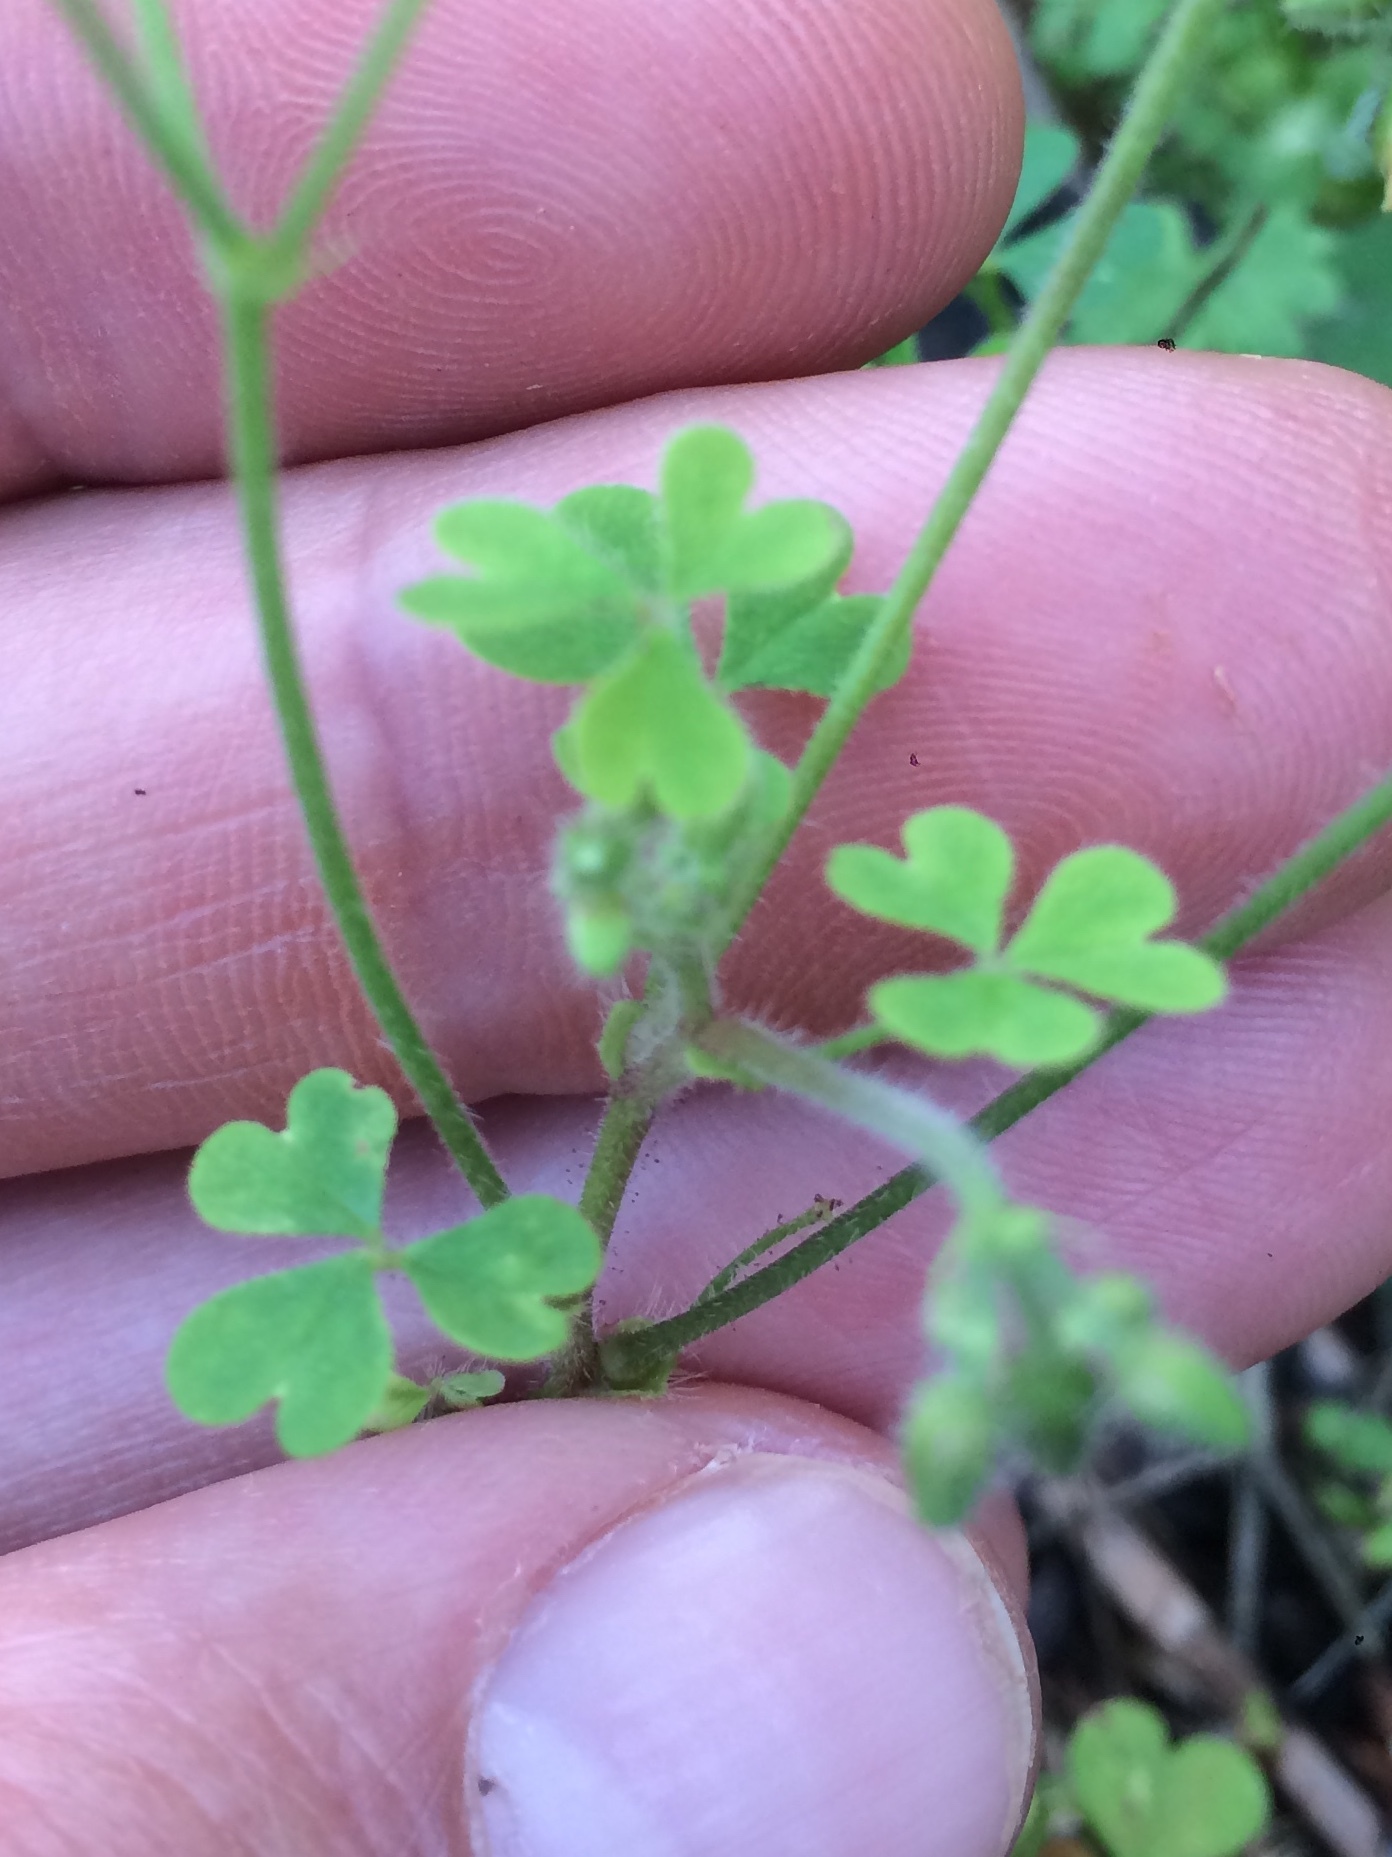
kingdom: Plantae
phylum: Tracheophyta
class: Magnoliopsida
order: Oxalidales
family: Oxalidaceae
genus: Oxalis
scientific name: Oxalis niederleinii
